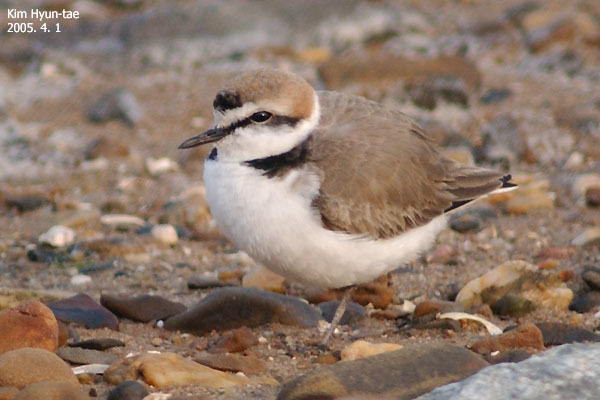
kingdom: Animalia
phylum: Chordata
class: Aves
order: Charadriiformes
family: Charadriidae
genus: Charadrius
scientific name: Charadrius alexandrinus
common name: Kentish plover
